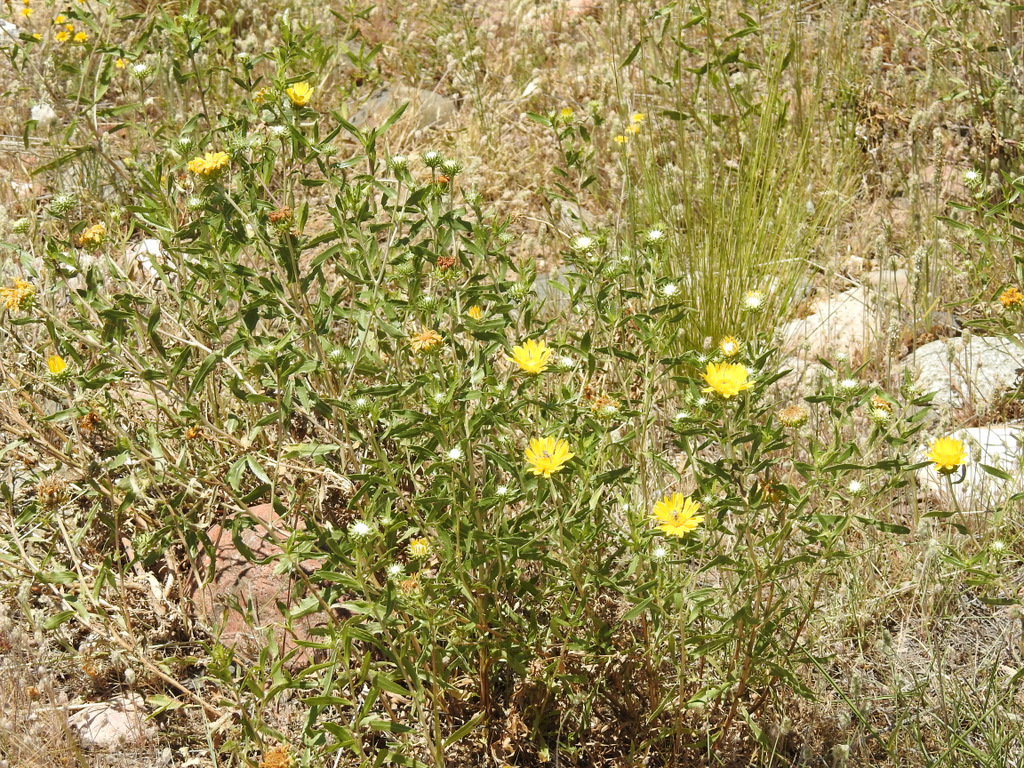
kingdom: Plantae
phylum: Tracheophyta
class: Magnoliopsida
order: Asterales
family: Asteraceae
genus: Grindelia
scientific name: Grindelia pulchella
